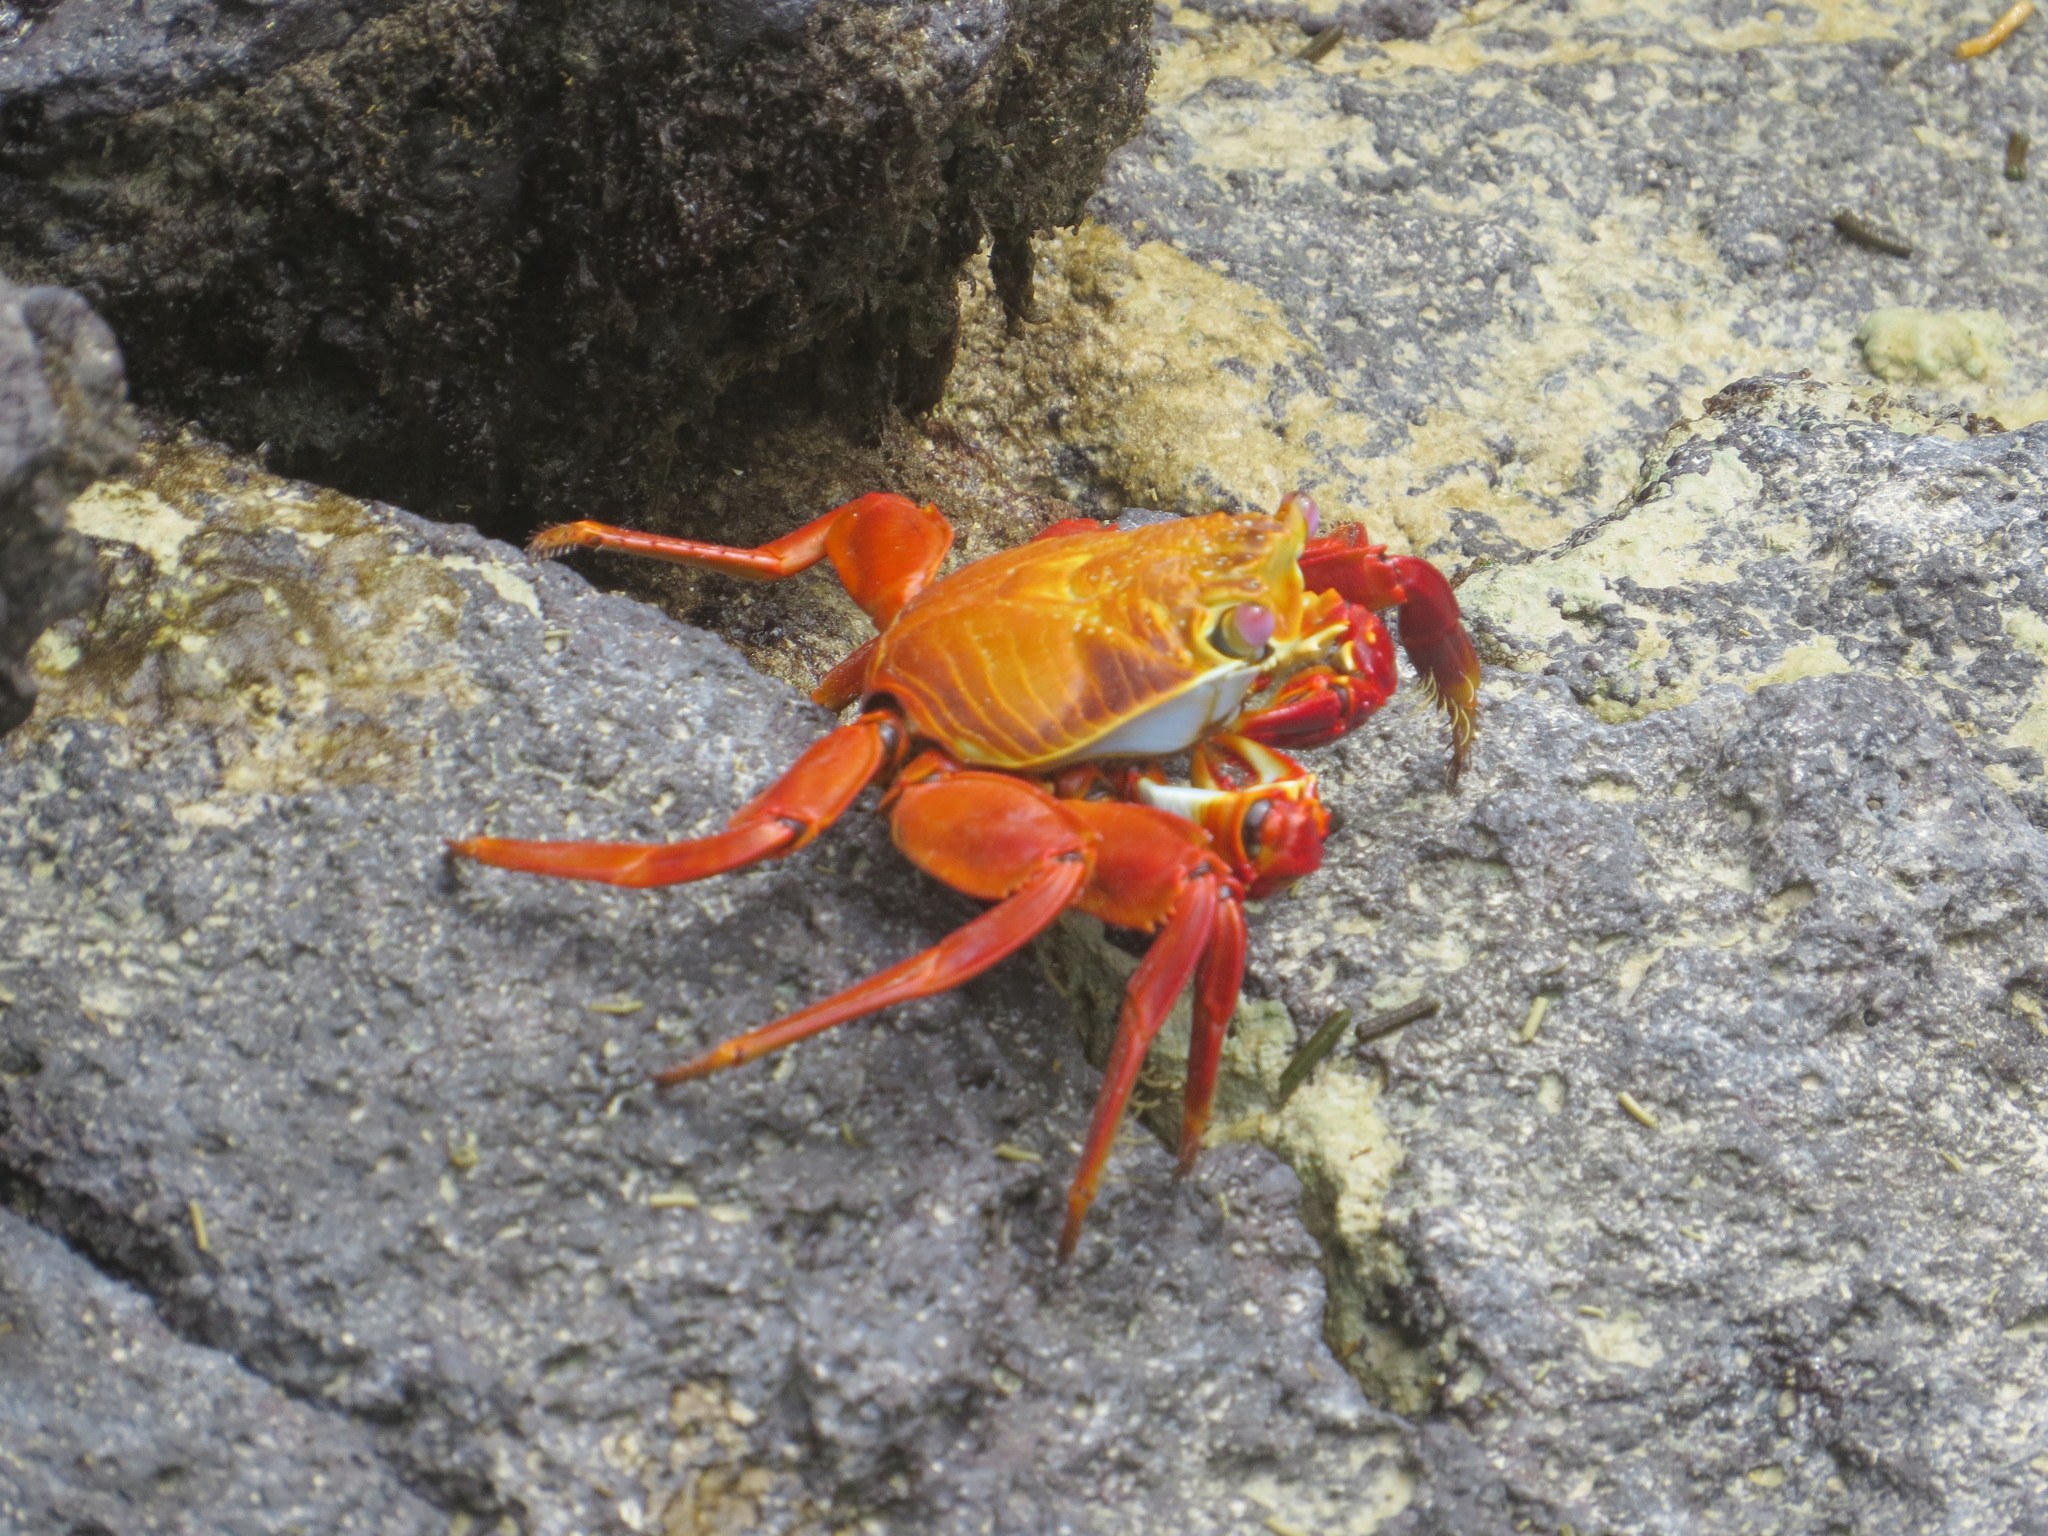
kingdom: Animalia
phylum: Arthropoda
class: Malacostraca
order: Decapoda
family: Grapsidae
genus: Grapsus
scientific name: Grapsus grapsus
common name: Sally lightfoot
